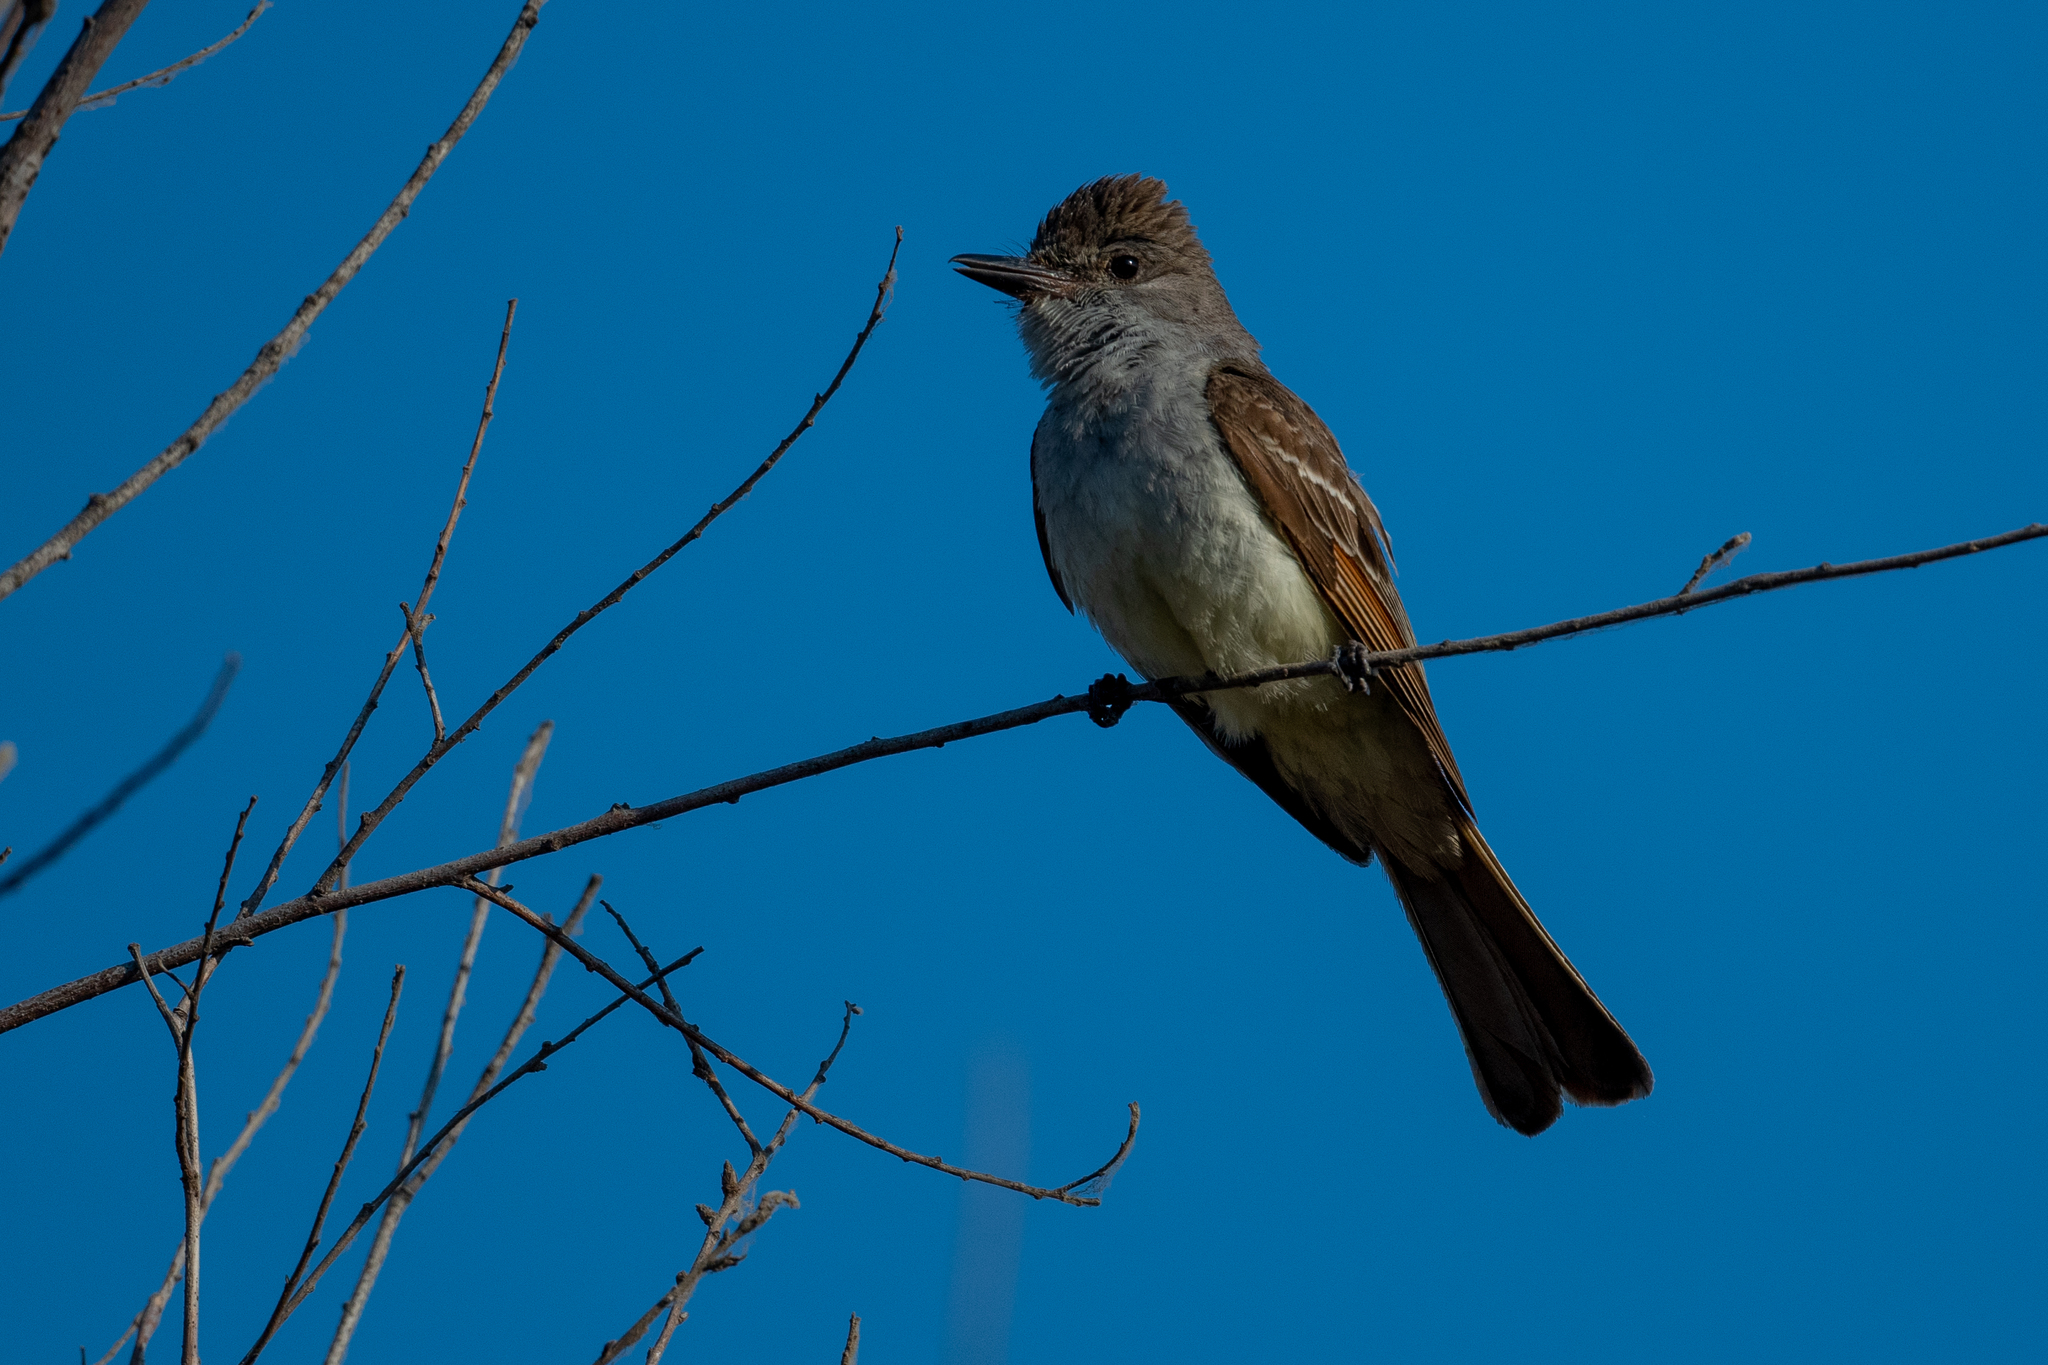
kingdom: Animalia
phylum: Chordata
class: Aves
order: Passeriformes
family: Tyrannidae
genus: Myiarchus
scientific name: Myiarchus cinerascens
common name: Ash-throated flycatcher
